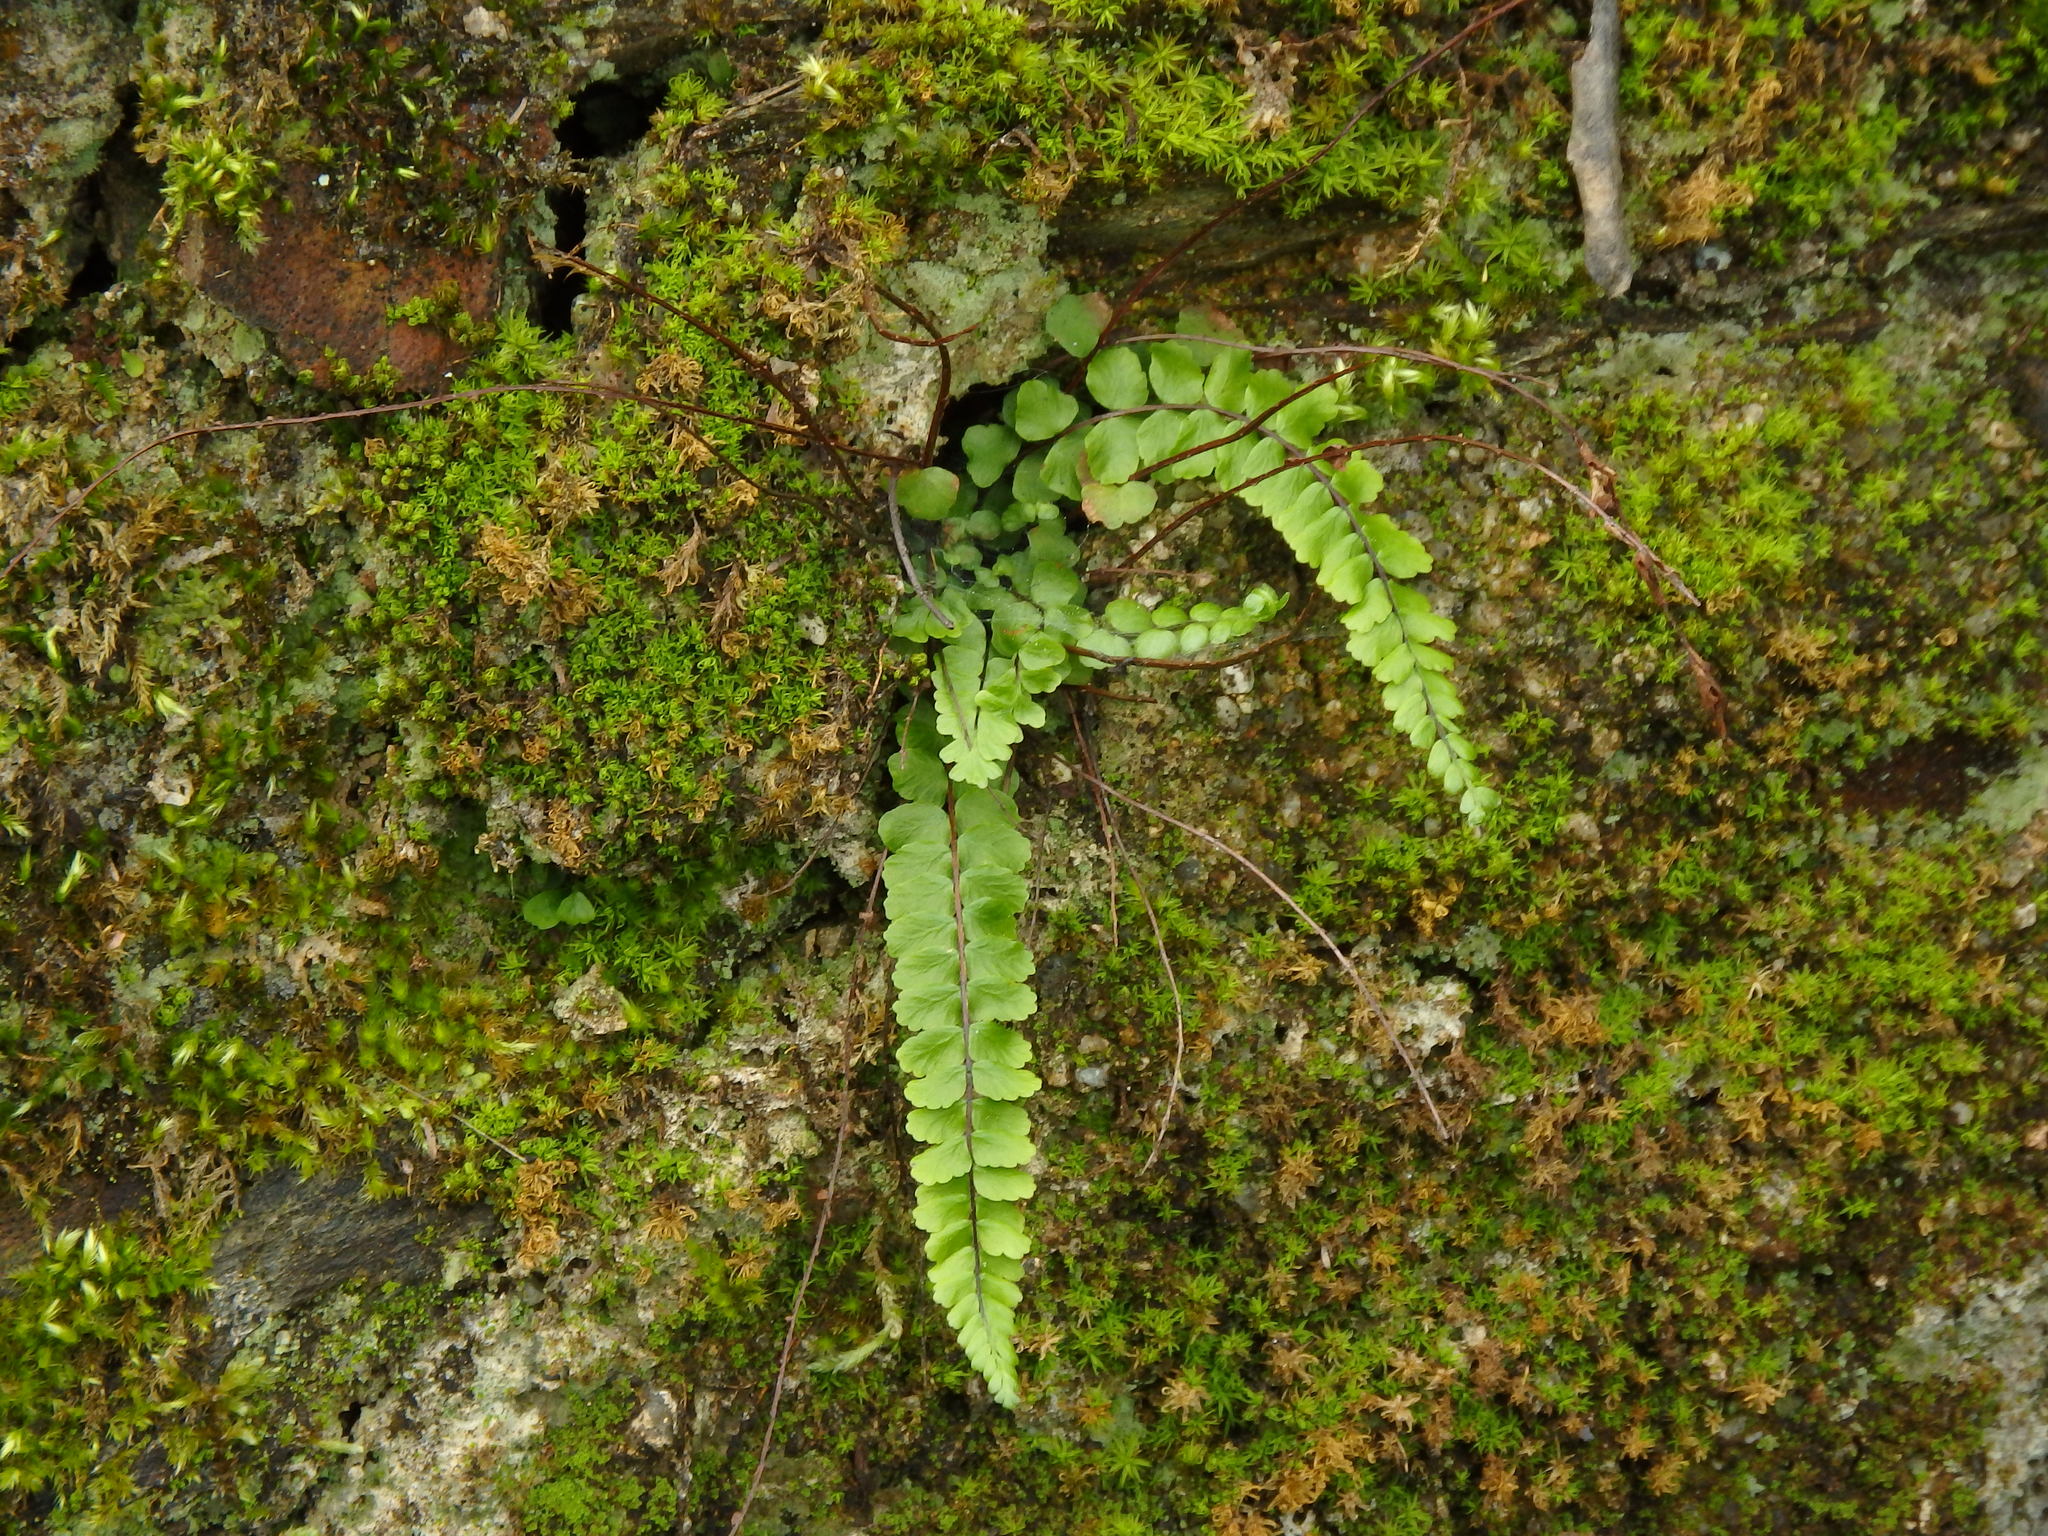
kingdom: Plantae
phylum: Tracheophyta
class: Polypodiopsida
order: Polypodiales
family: Aspleniaceae
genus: Asplenium
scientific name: Asplenium trichomanes
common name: Maidenhair spleenwort
